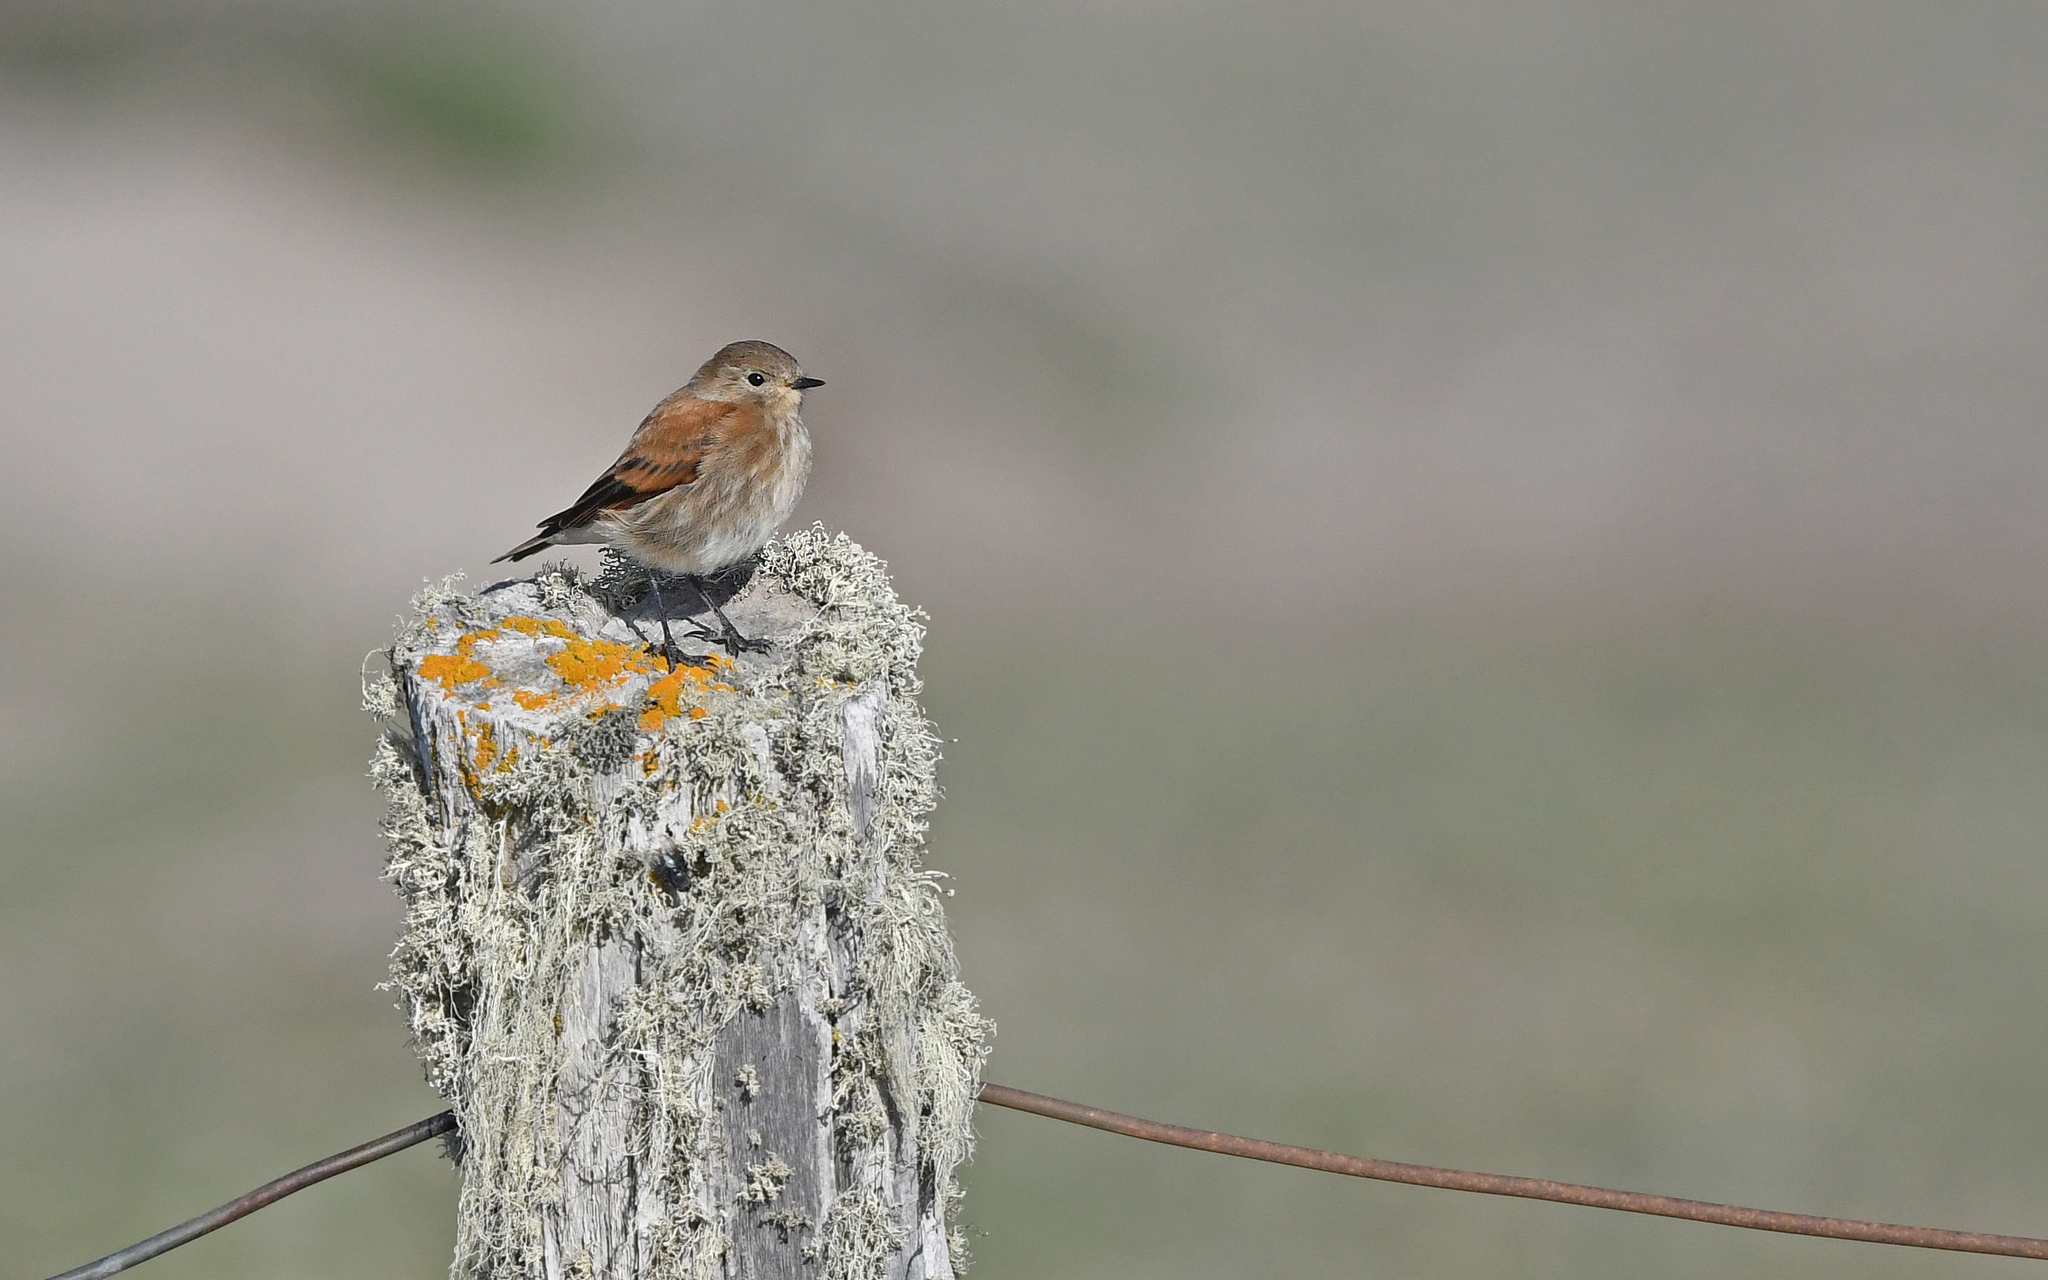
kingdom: Animalia
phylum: Chordata
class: Aves
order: Passeriformes
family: Tyrannidae
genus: Lessonia
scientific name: Lessonia rufa
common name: Austral negrito
